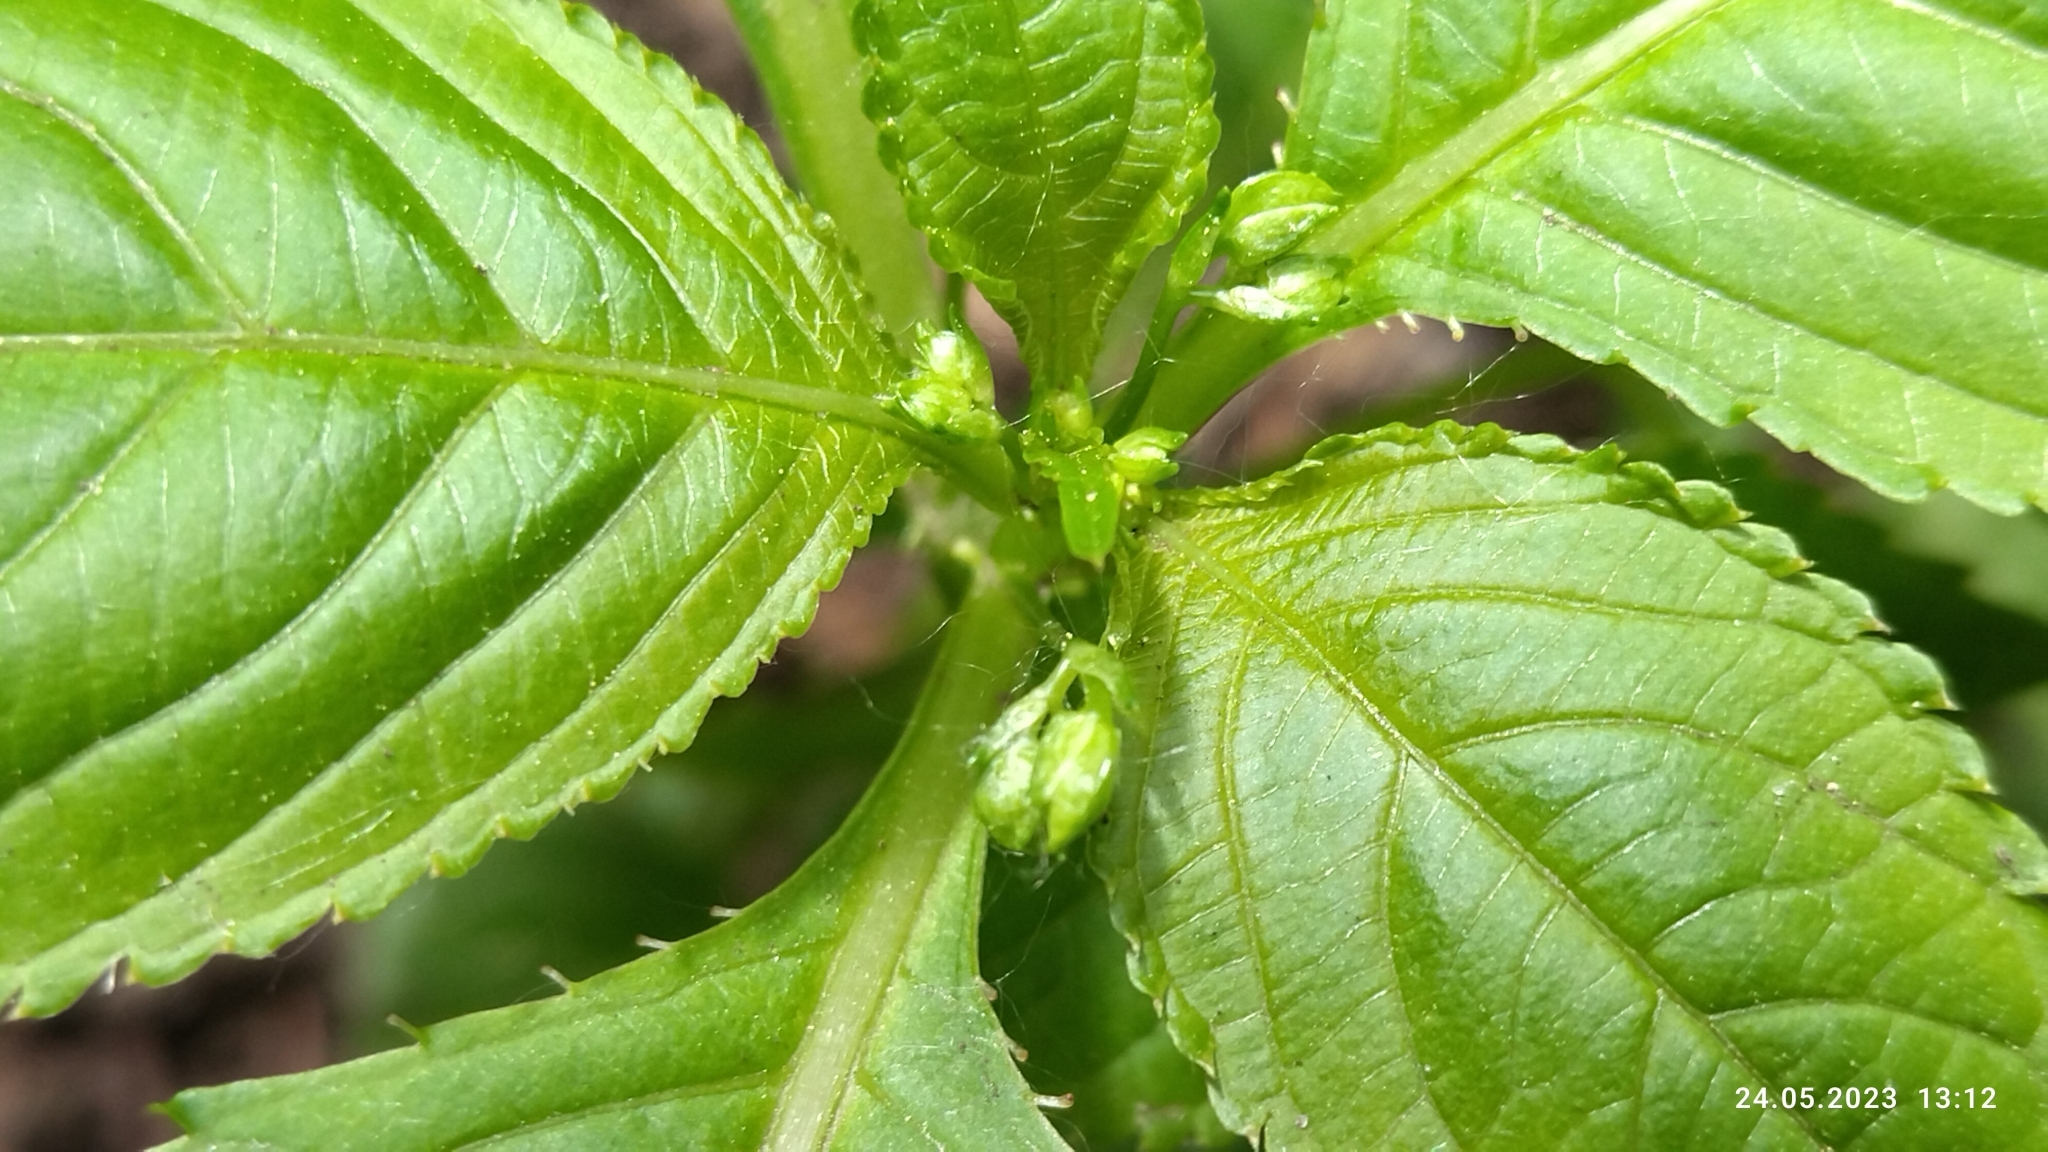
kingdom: Plantae
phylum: Tracheophyta
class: Magnoliopsida
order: Ericales
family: Balsaminaceae
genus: Impatiens
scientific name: Impatiens parviflora
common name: Small balsam
